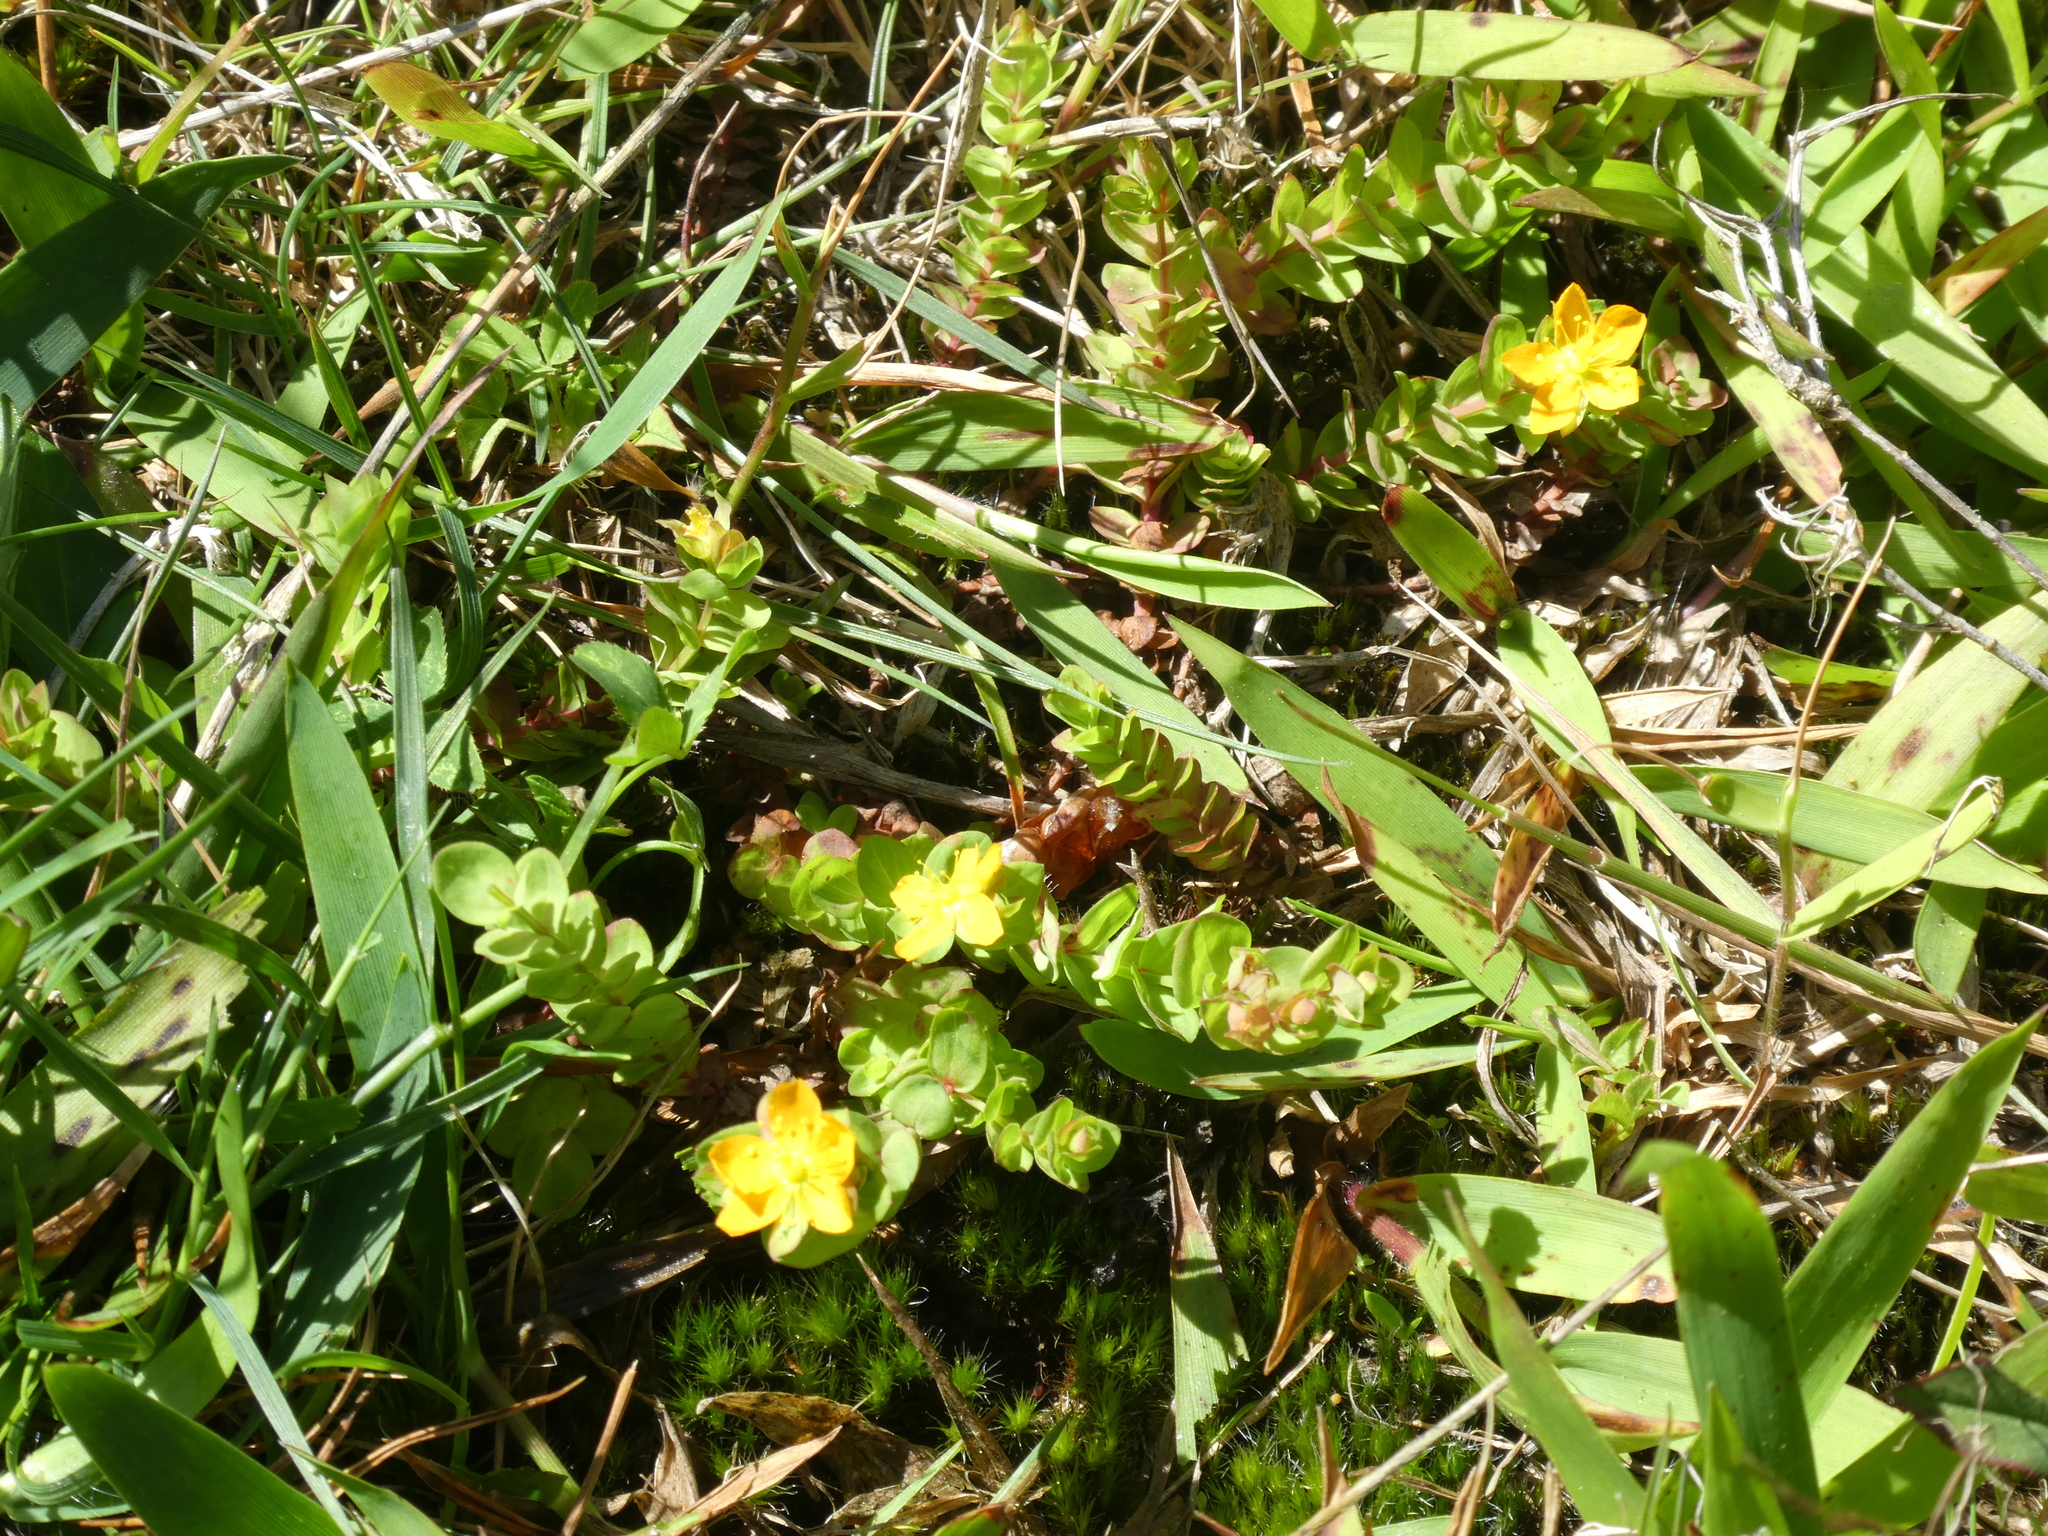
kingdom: Plantae
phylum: Tracheophyta
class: Magnoliopsida
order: Malpighiales
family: Hypericaceae
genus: Hypericum
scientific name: Hypericum anagalloides
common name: Bog st. john's-wort
